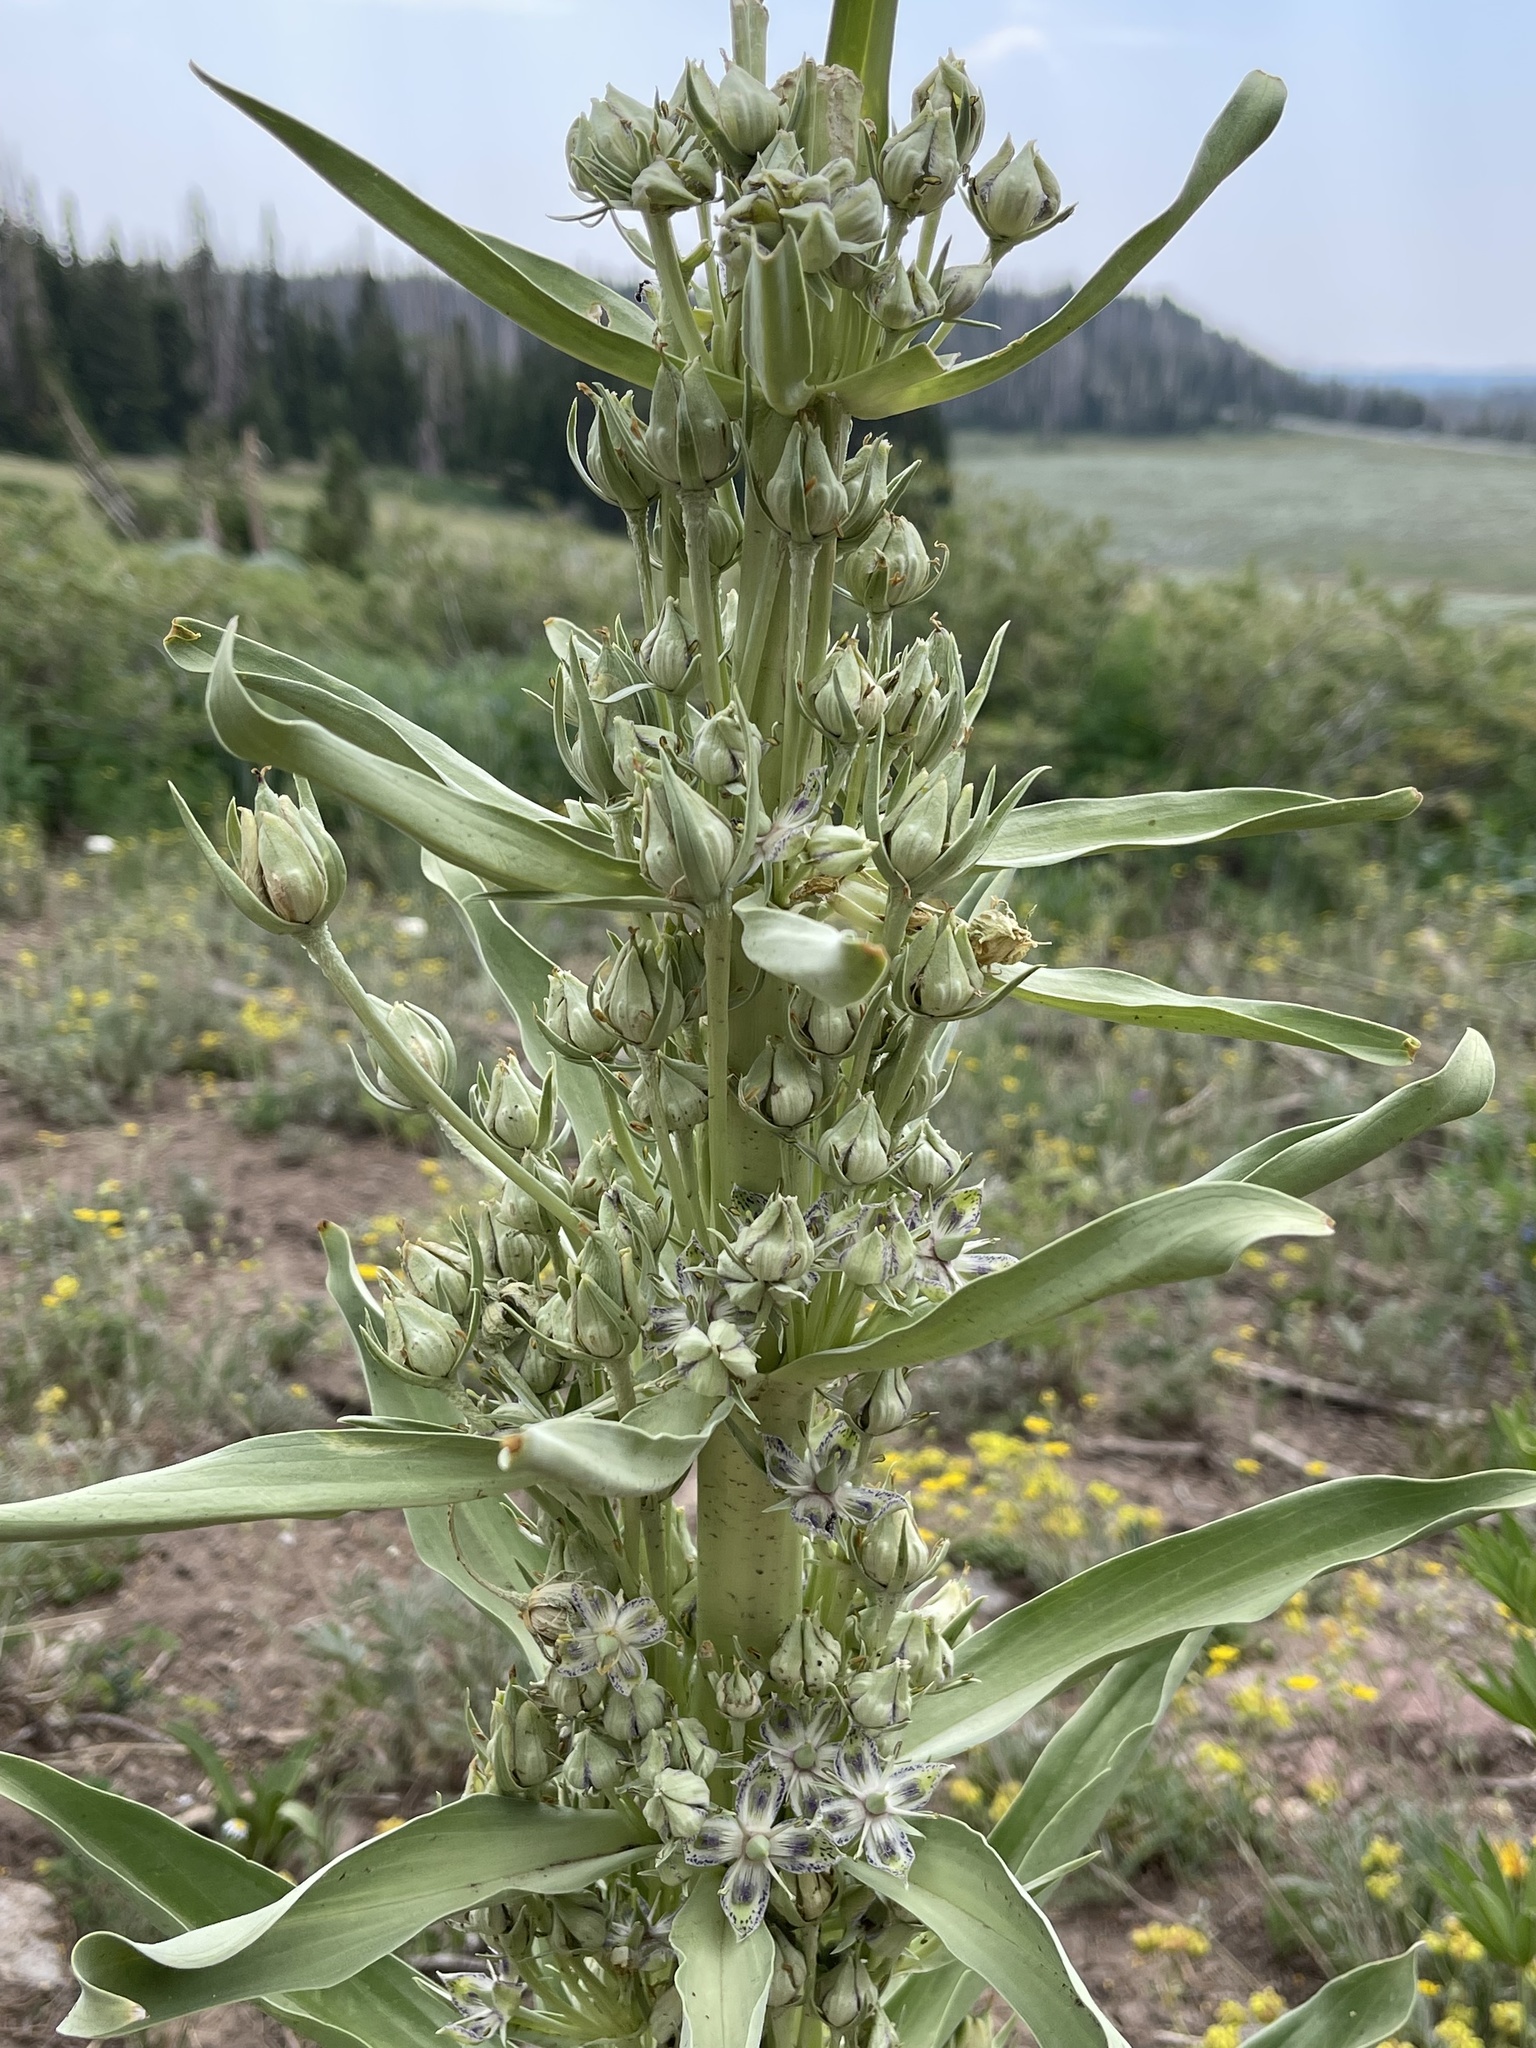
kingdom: Plantae
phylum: Tracheophyta
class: Magnoliopsida
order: Gentianales
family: Gentianaceae
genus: Frasera
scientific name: Frasera speciosa
